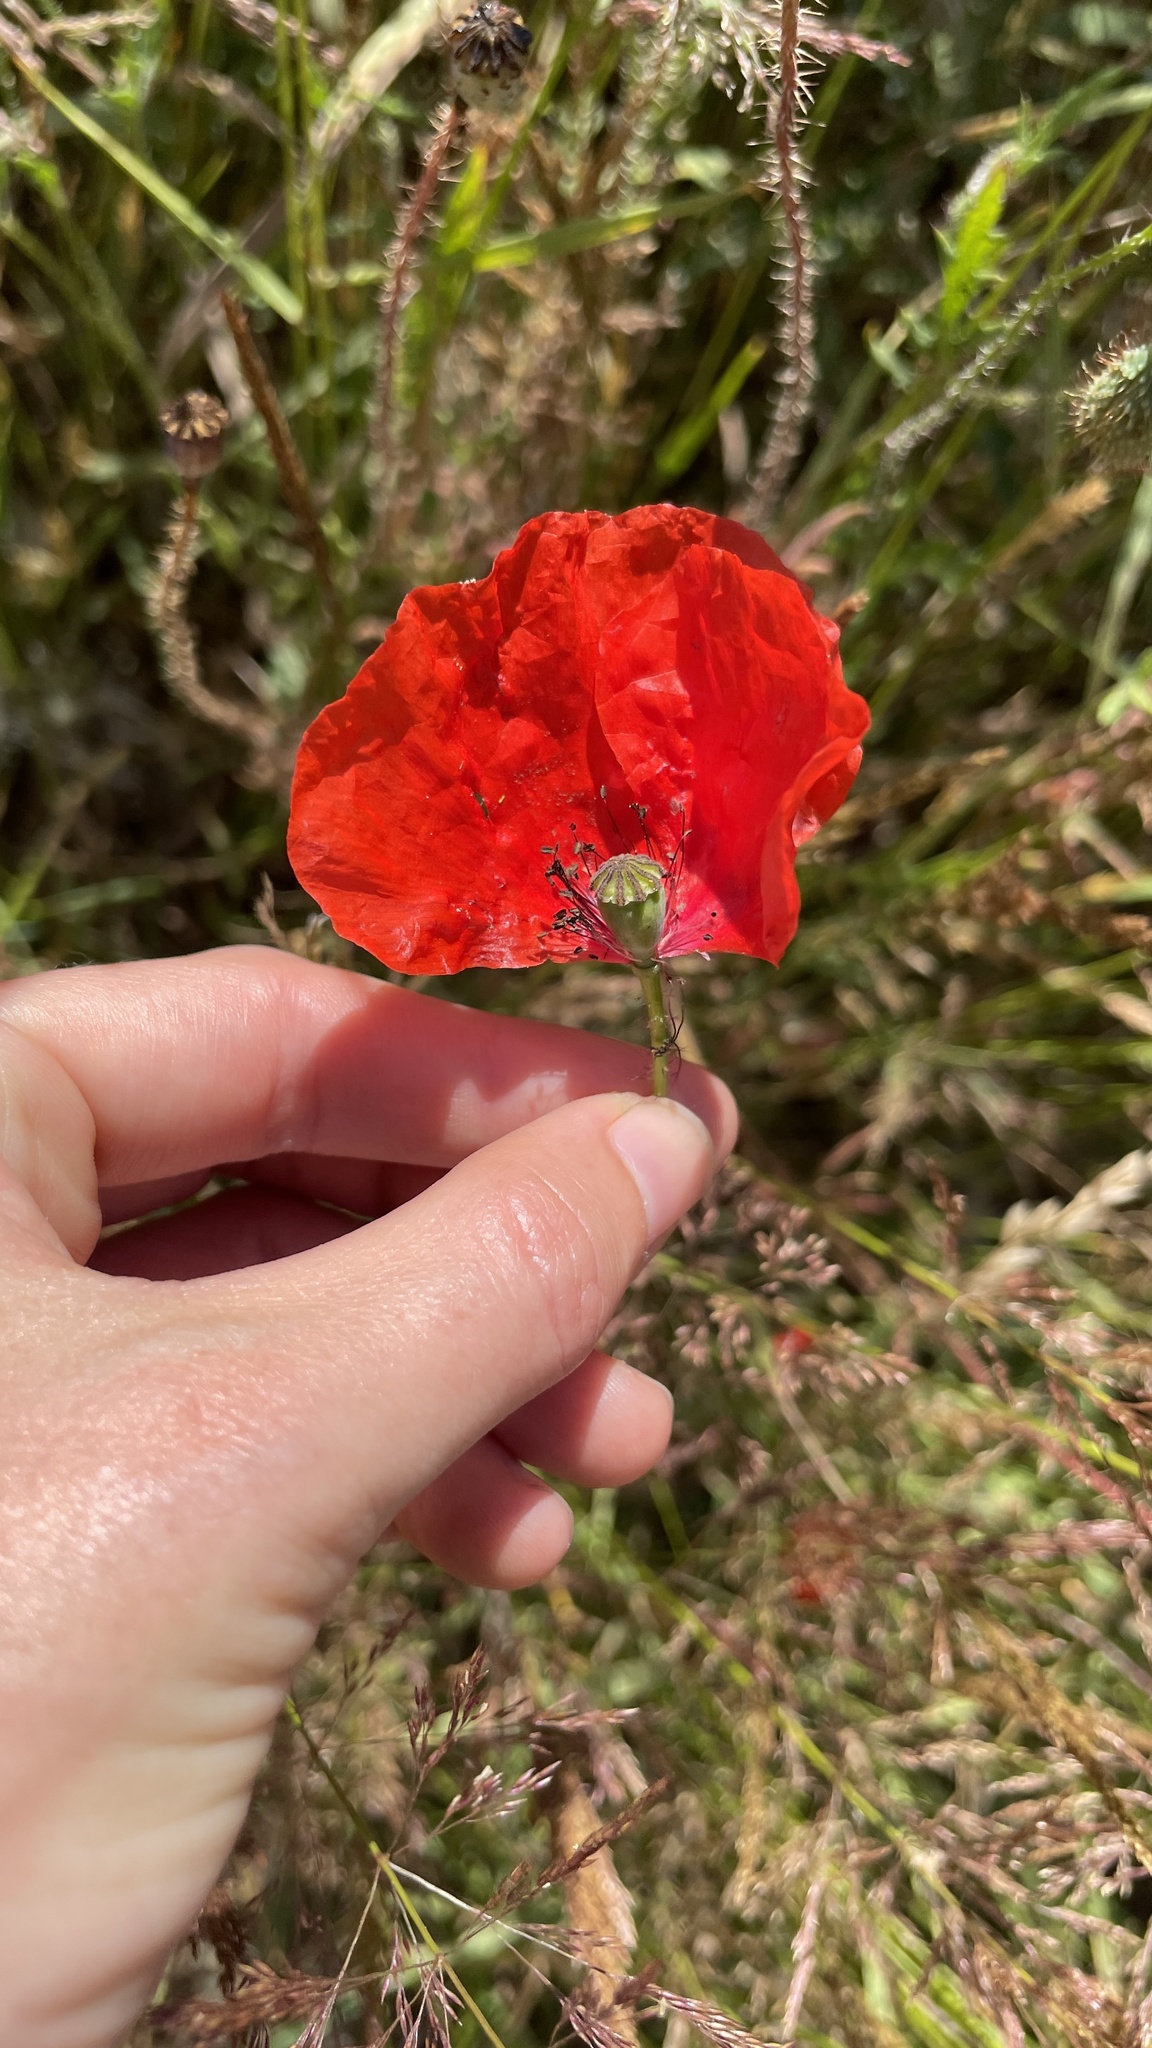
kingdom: Plantae
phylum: Tracheophyta
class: Magnoliopsida
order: Ranunculales
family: Papaveraceae
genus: Papaver
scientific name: Papaver rhoeas
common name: Corn poppy
